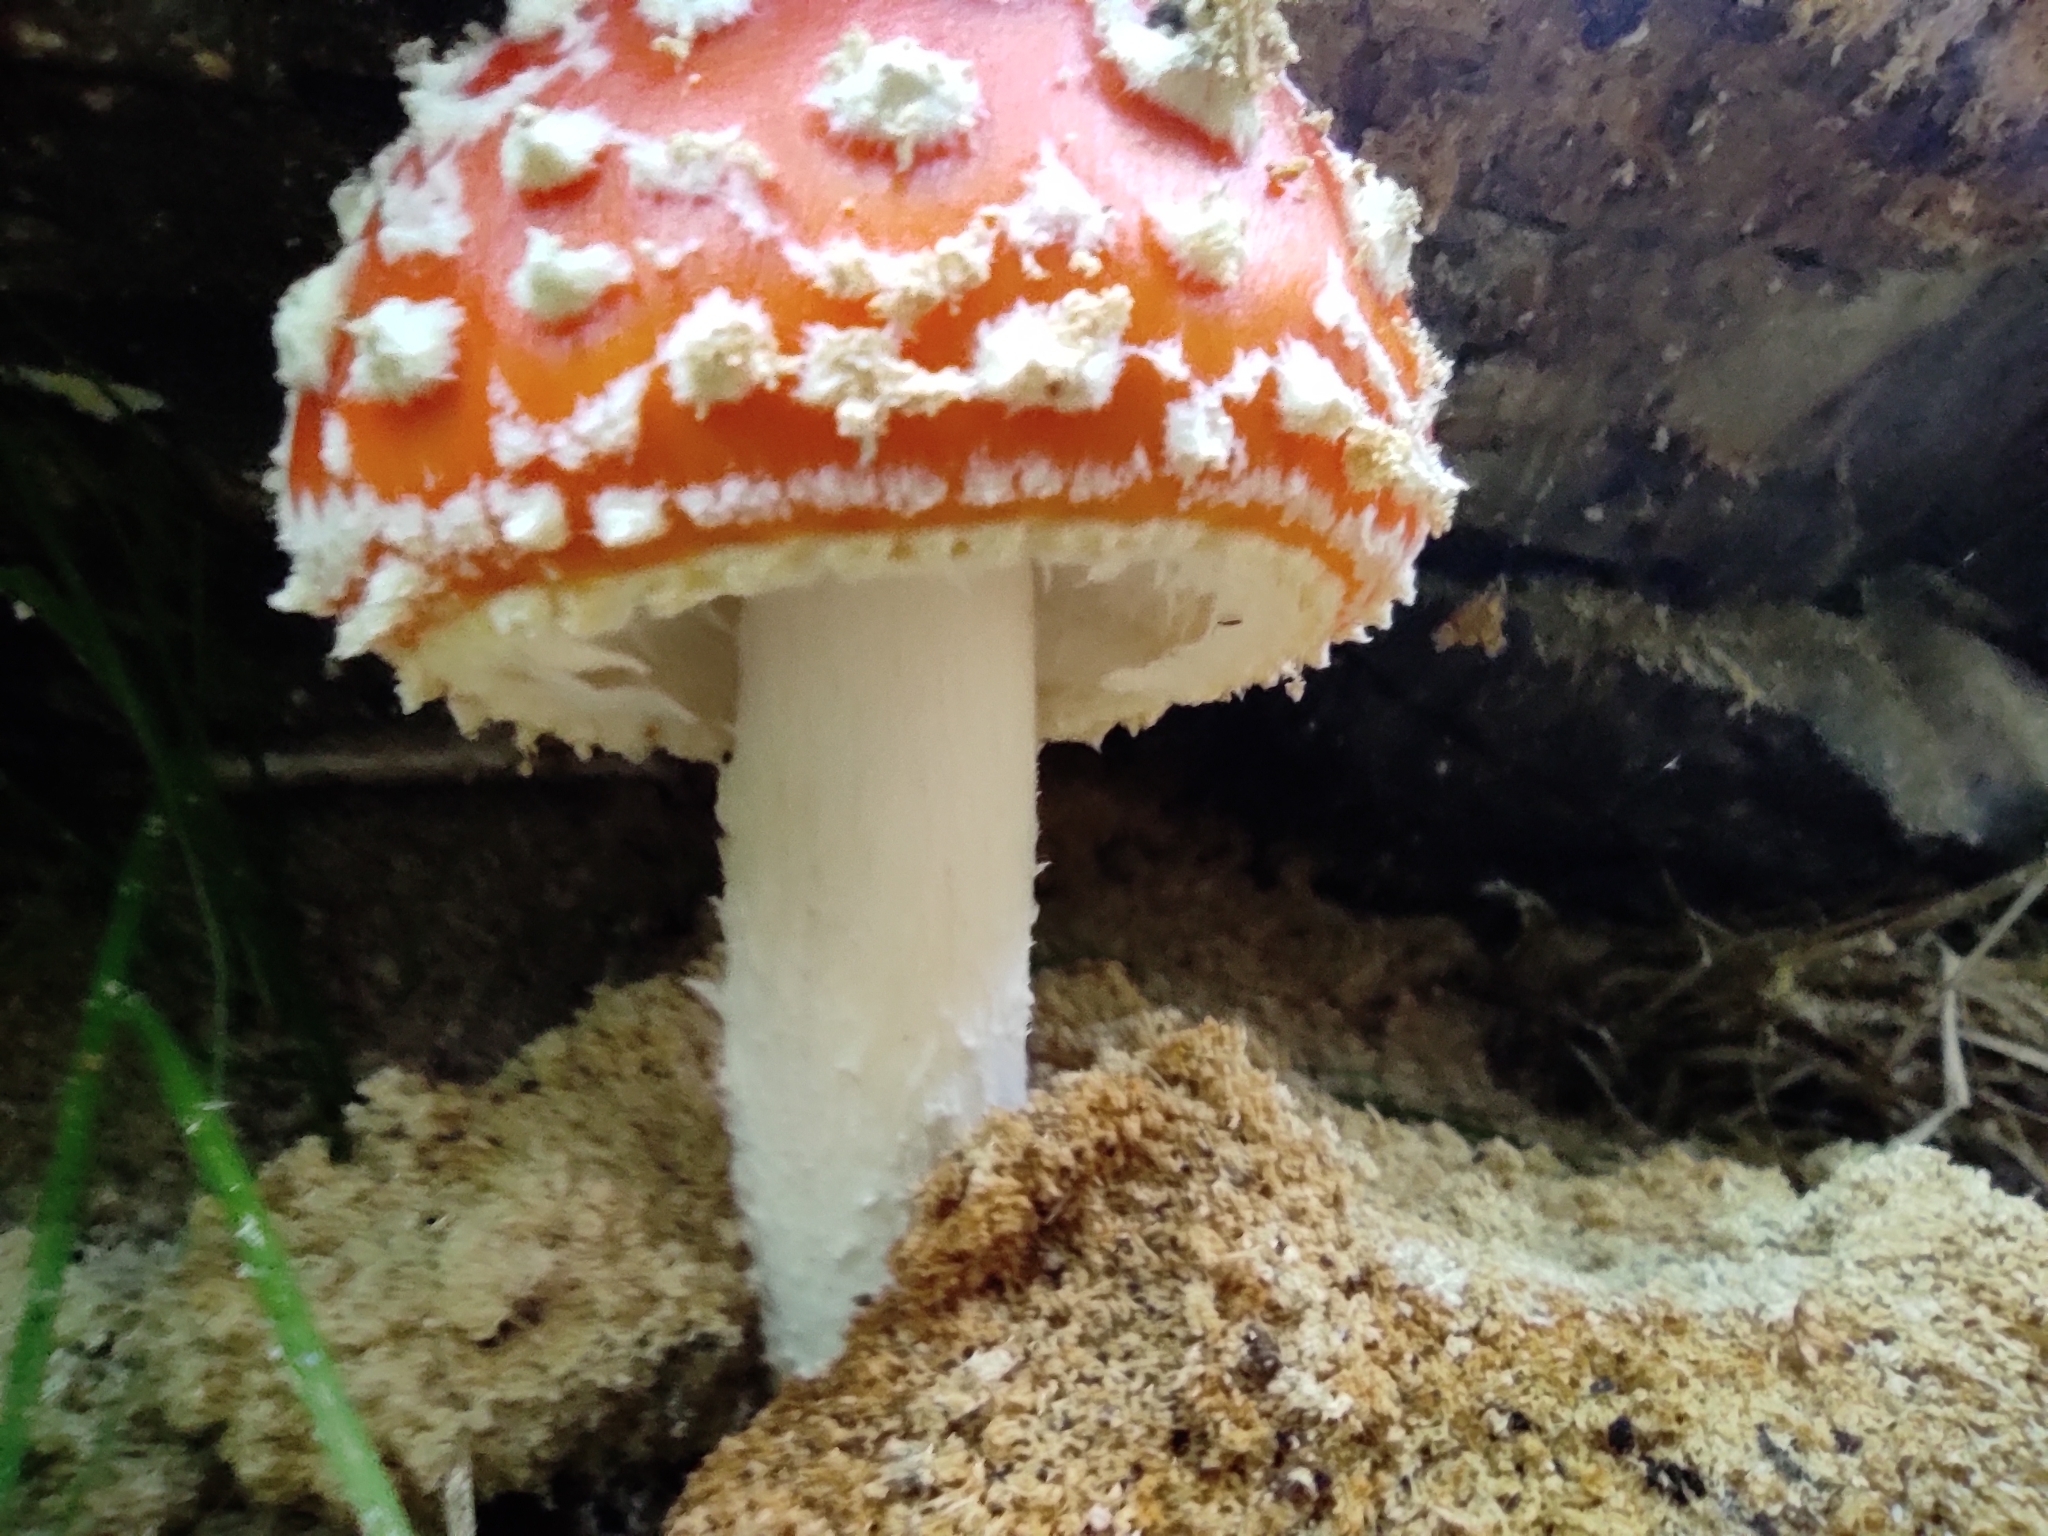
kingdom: Fungi
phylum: Basidiomycota
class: Agaricomycetes
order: Agaricales
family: Amanitaceae
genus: Amanita
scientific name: Amanita muscaria
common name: Fly agaric
